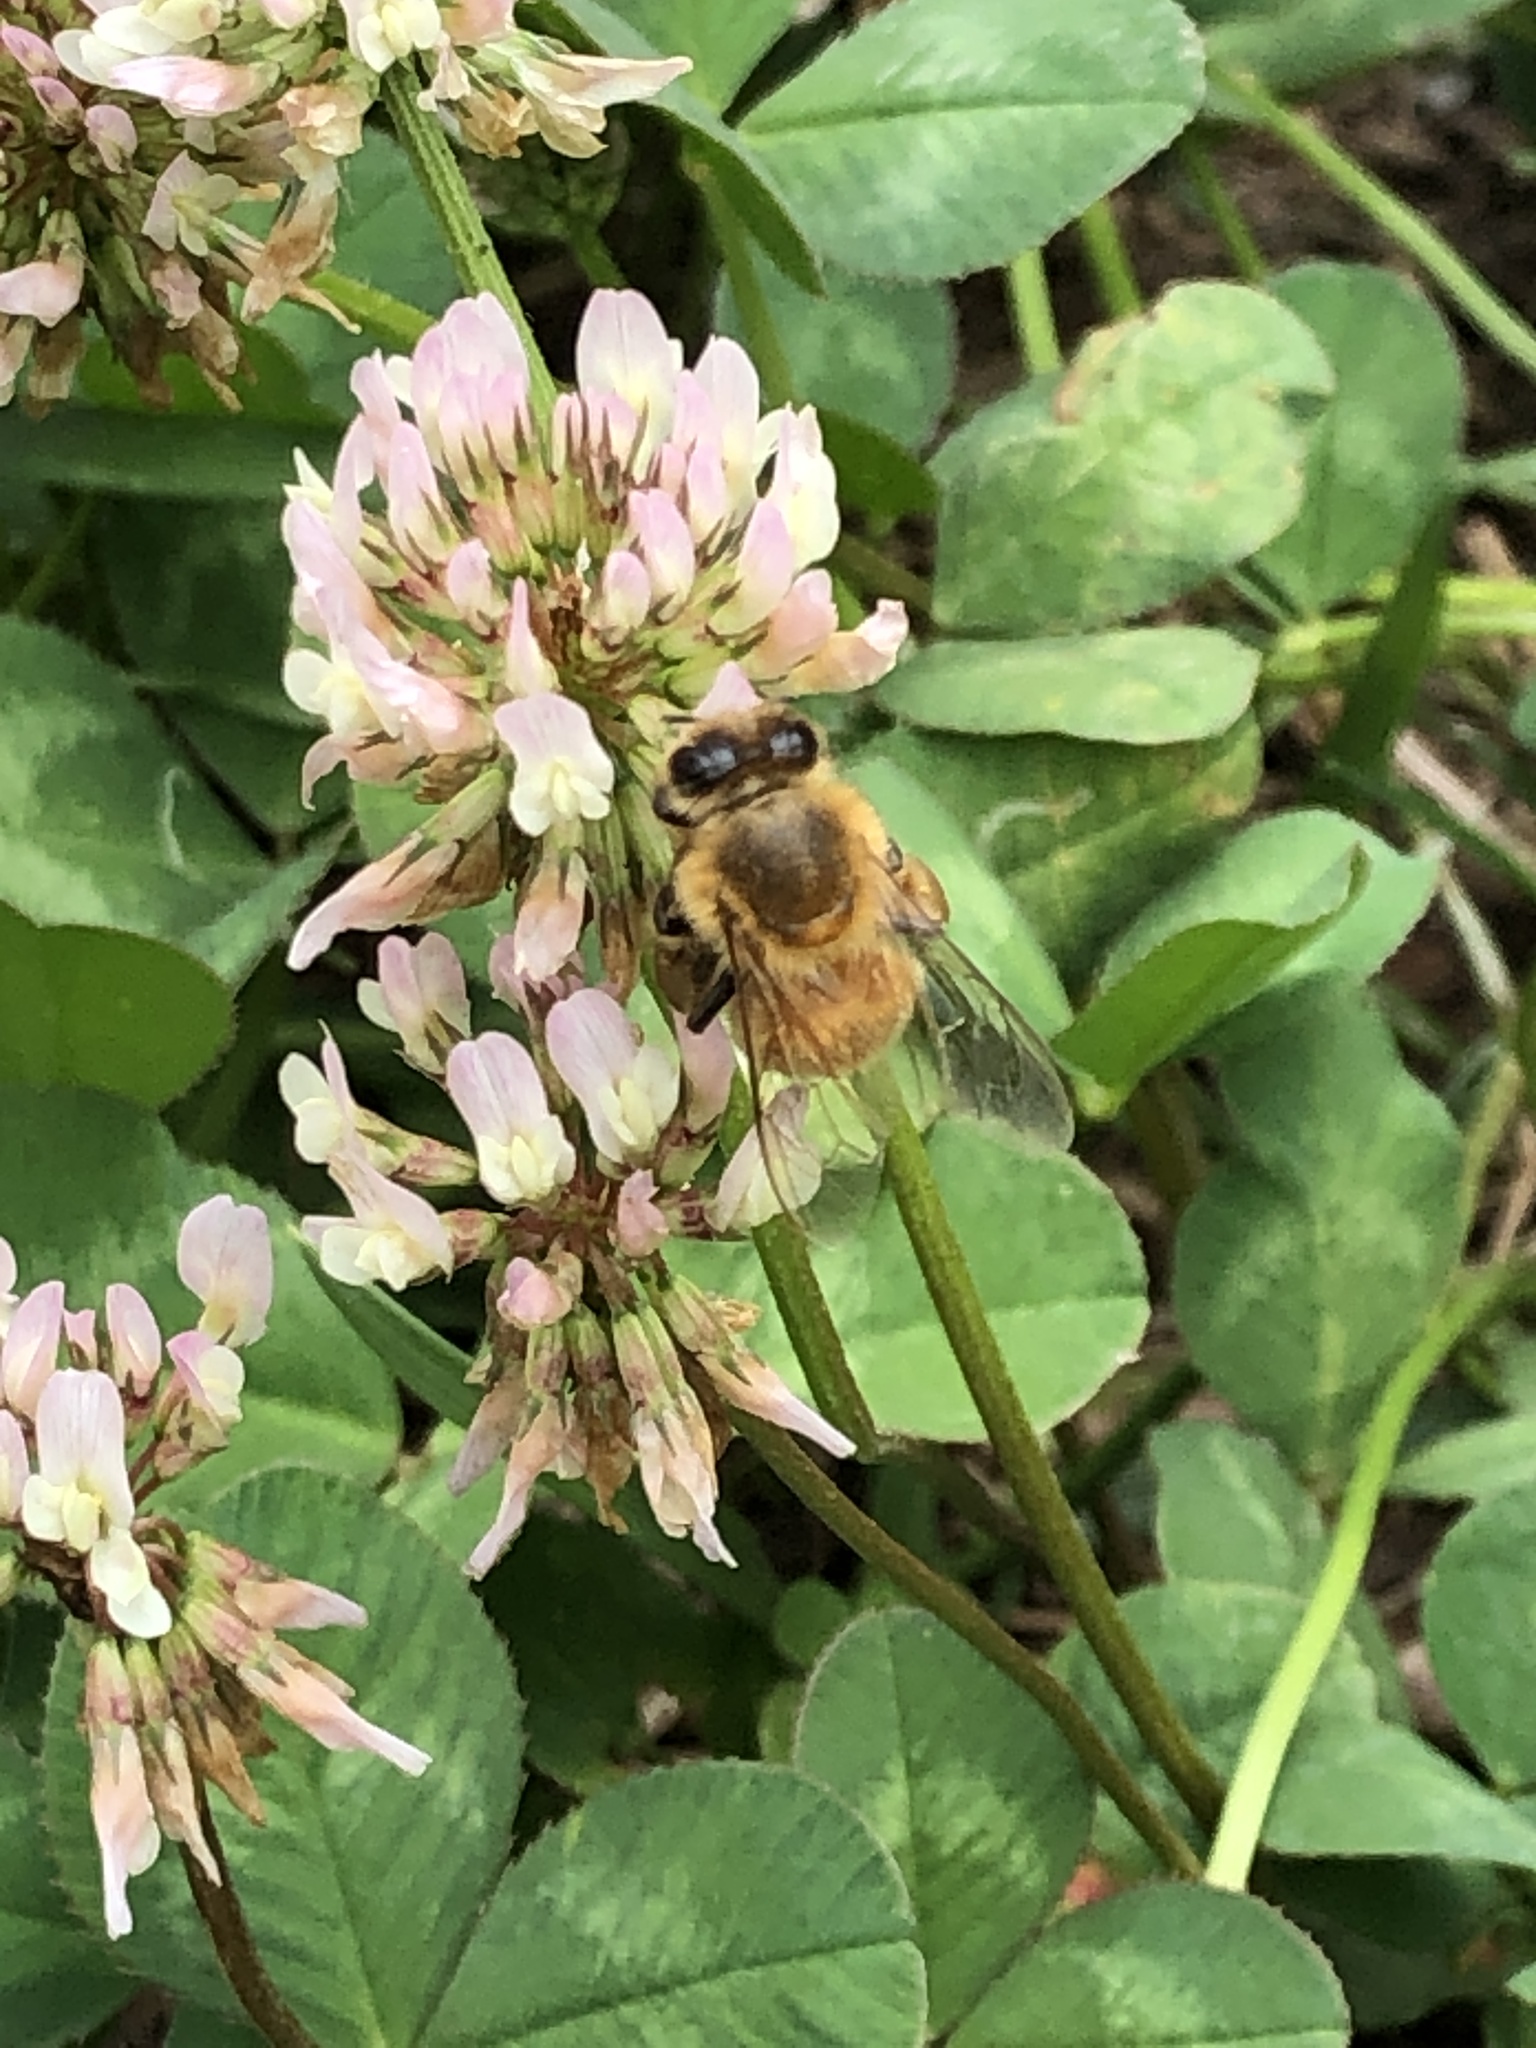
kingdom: Animalia
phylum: Arthropoda
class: Insecta
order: Hymenoptera
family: Apidae
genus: Apis
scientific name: Apis mellifera
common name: Honey bee
